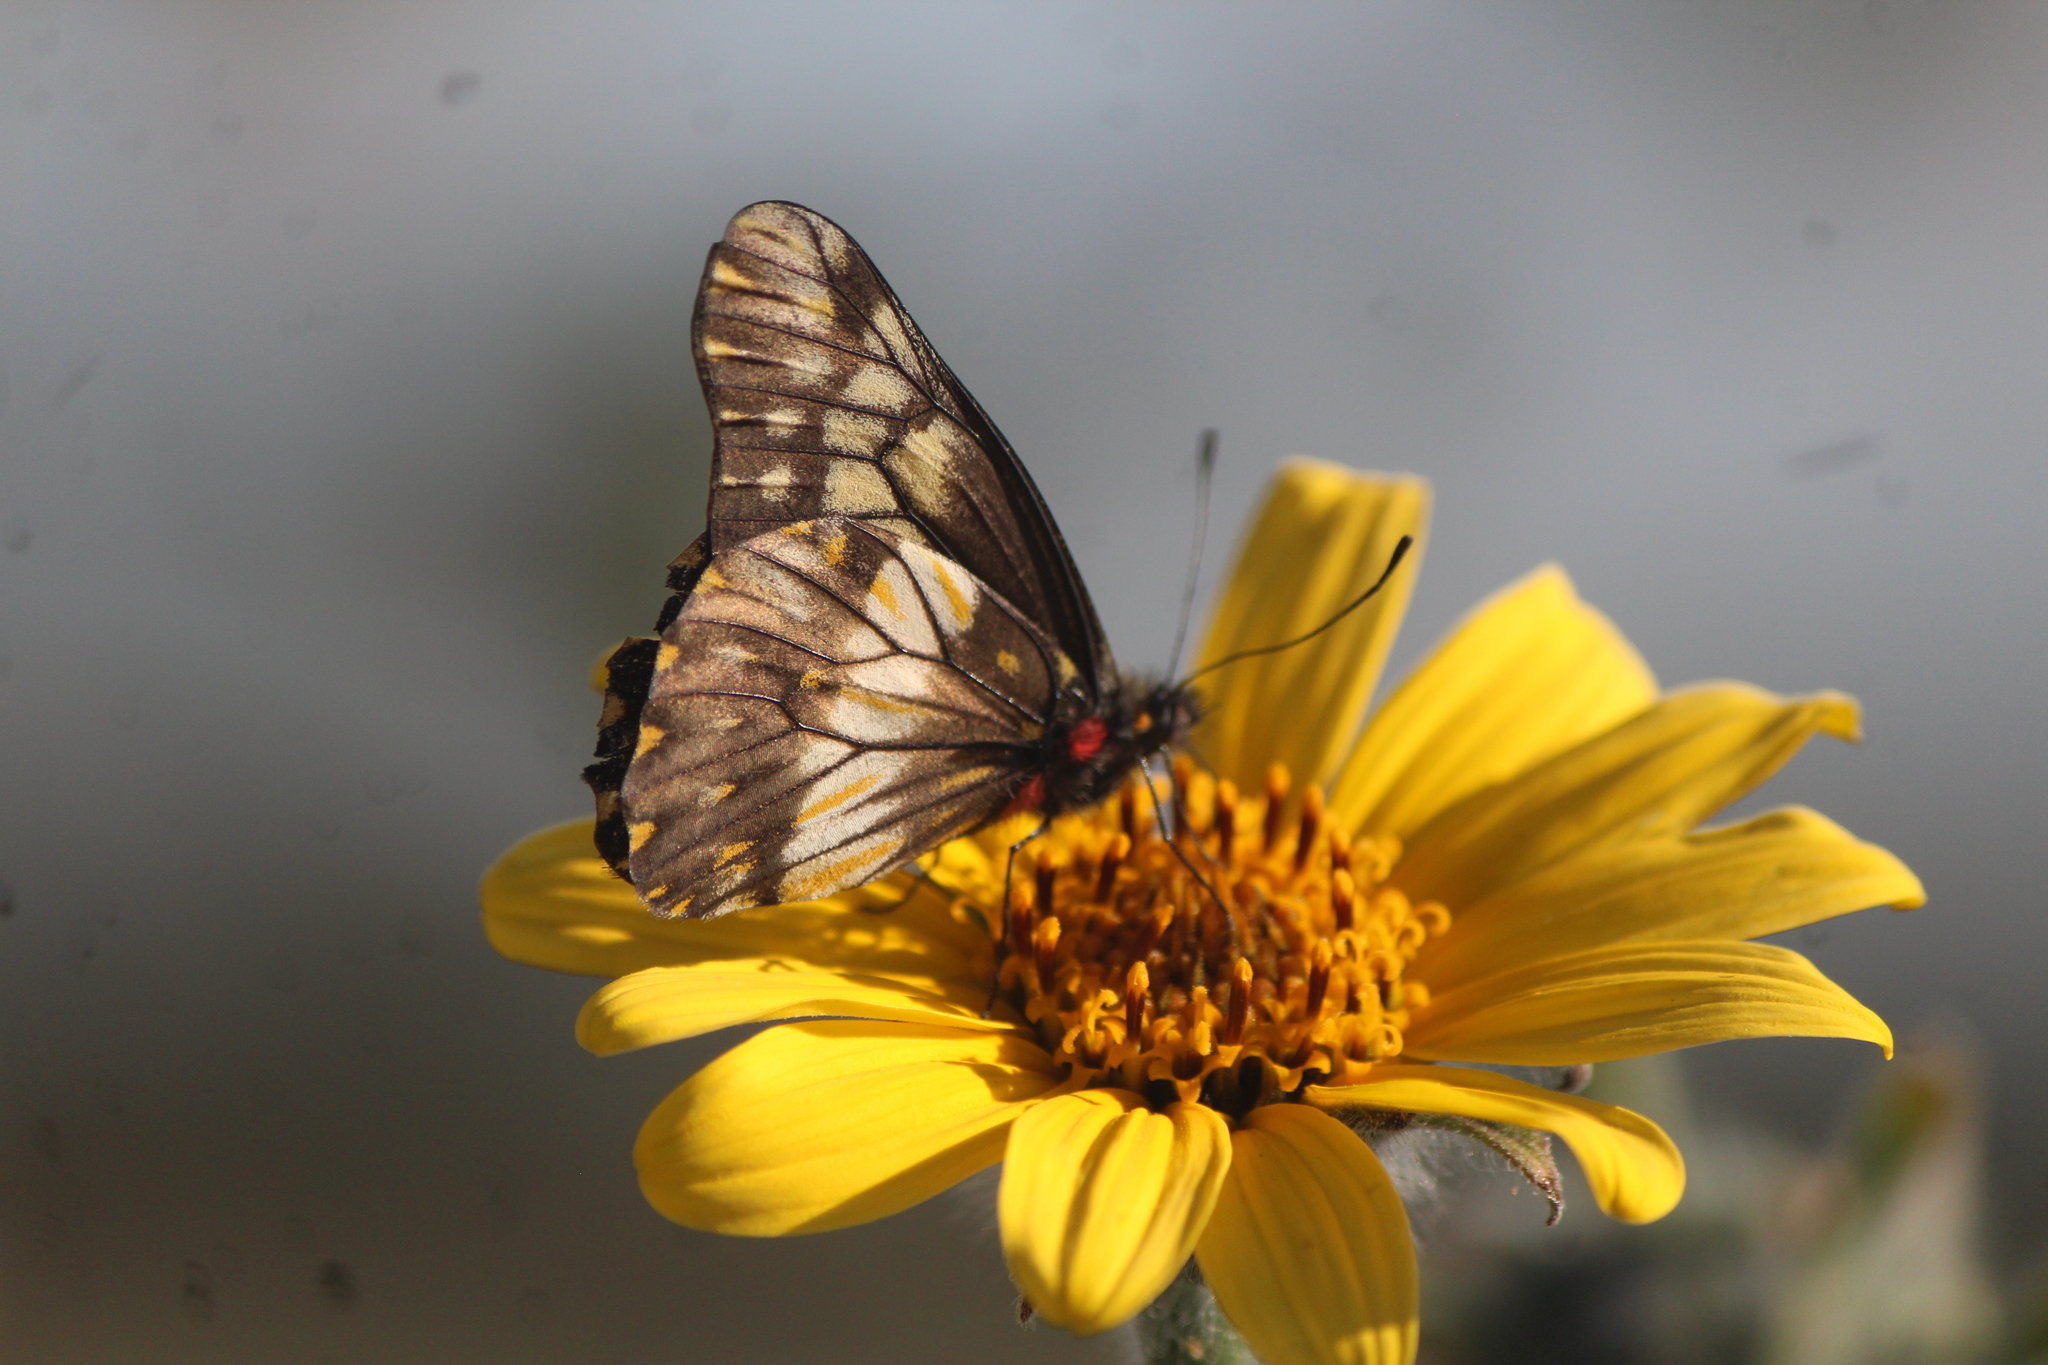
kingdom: Animalia
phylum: Arthropoda
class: Insecta
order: Lepidoptera
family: Pieridae
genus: Archonias
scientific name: Archonias nimbice
